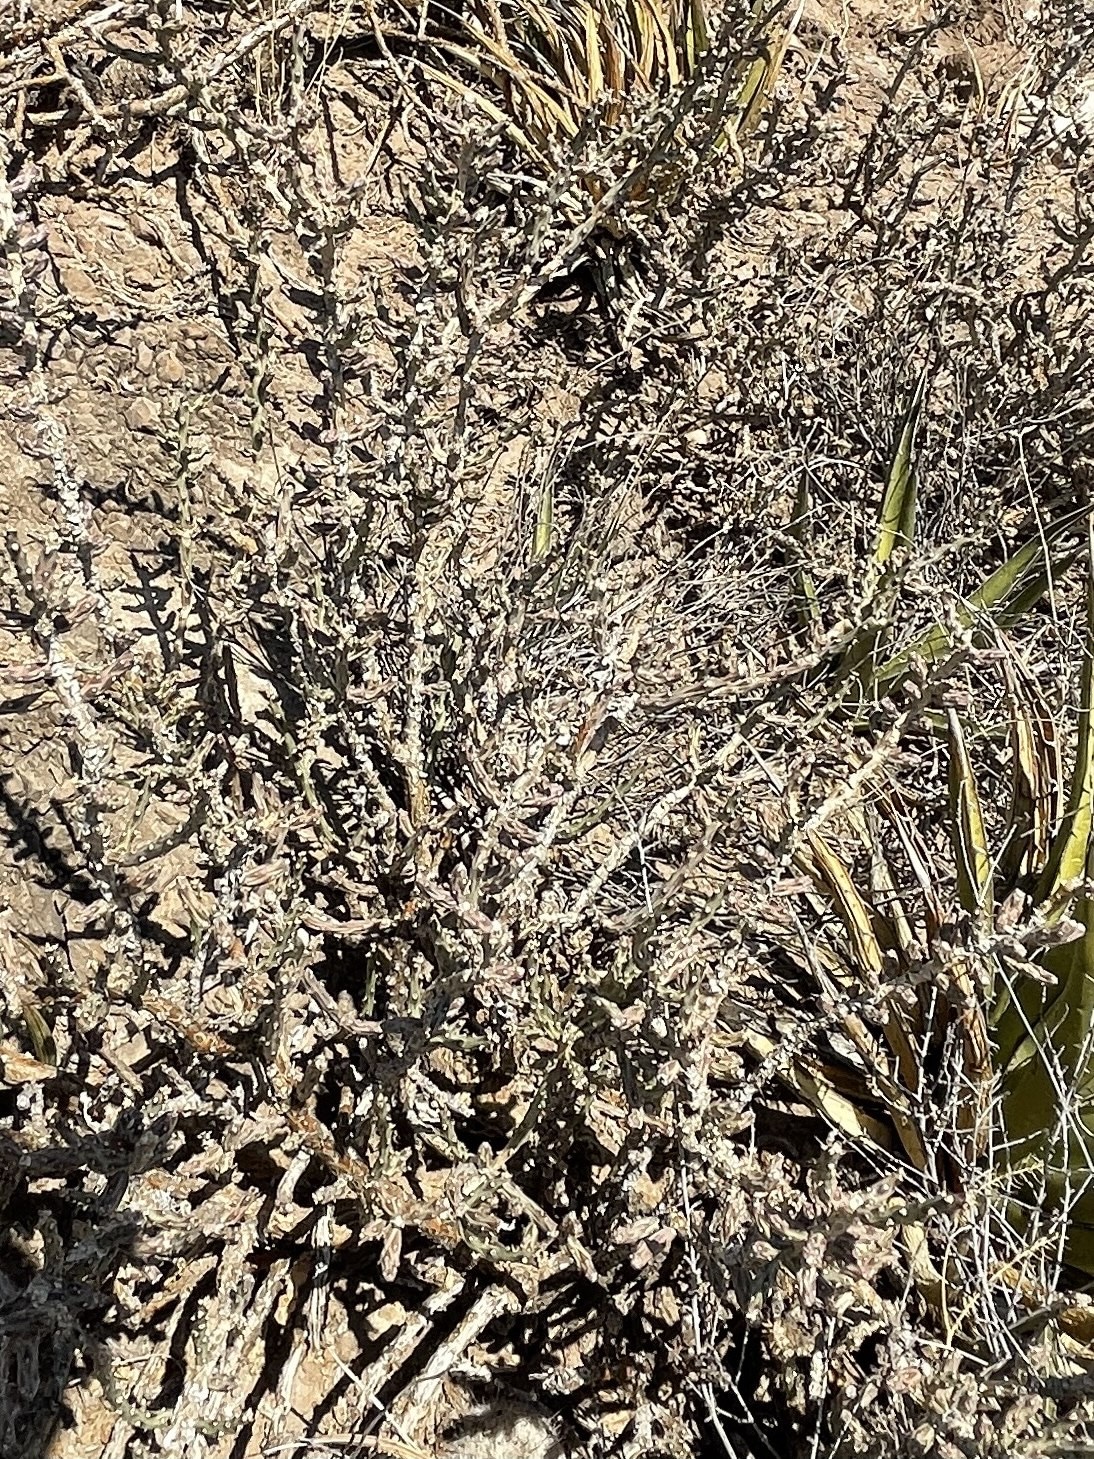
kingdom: Plantae
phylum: Tracheophyta
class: Magnoliopsida
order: Caryophyllales
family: Cactaceae
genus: Cylindropuntia
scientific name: Cylindropuntia leptocaulis
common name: Christmas cactus
